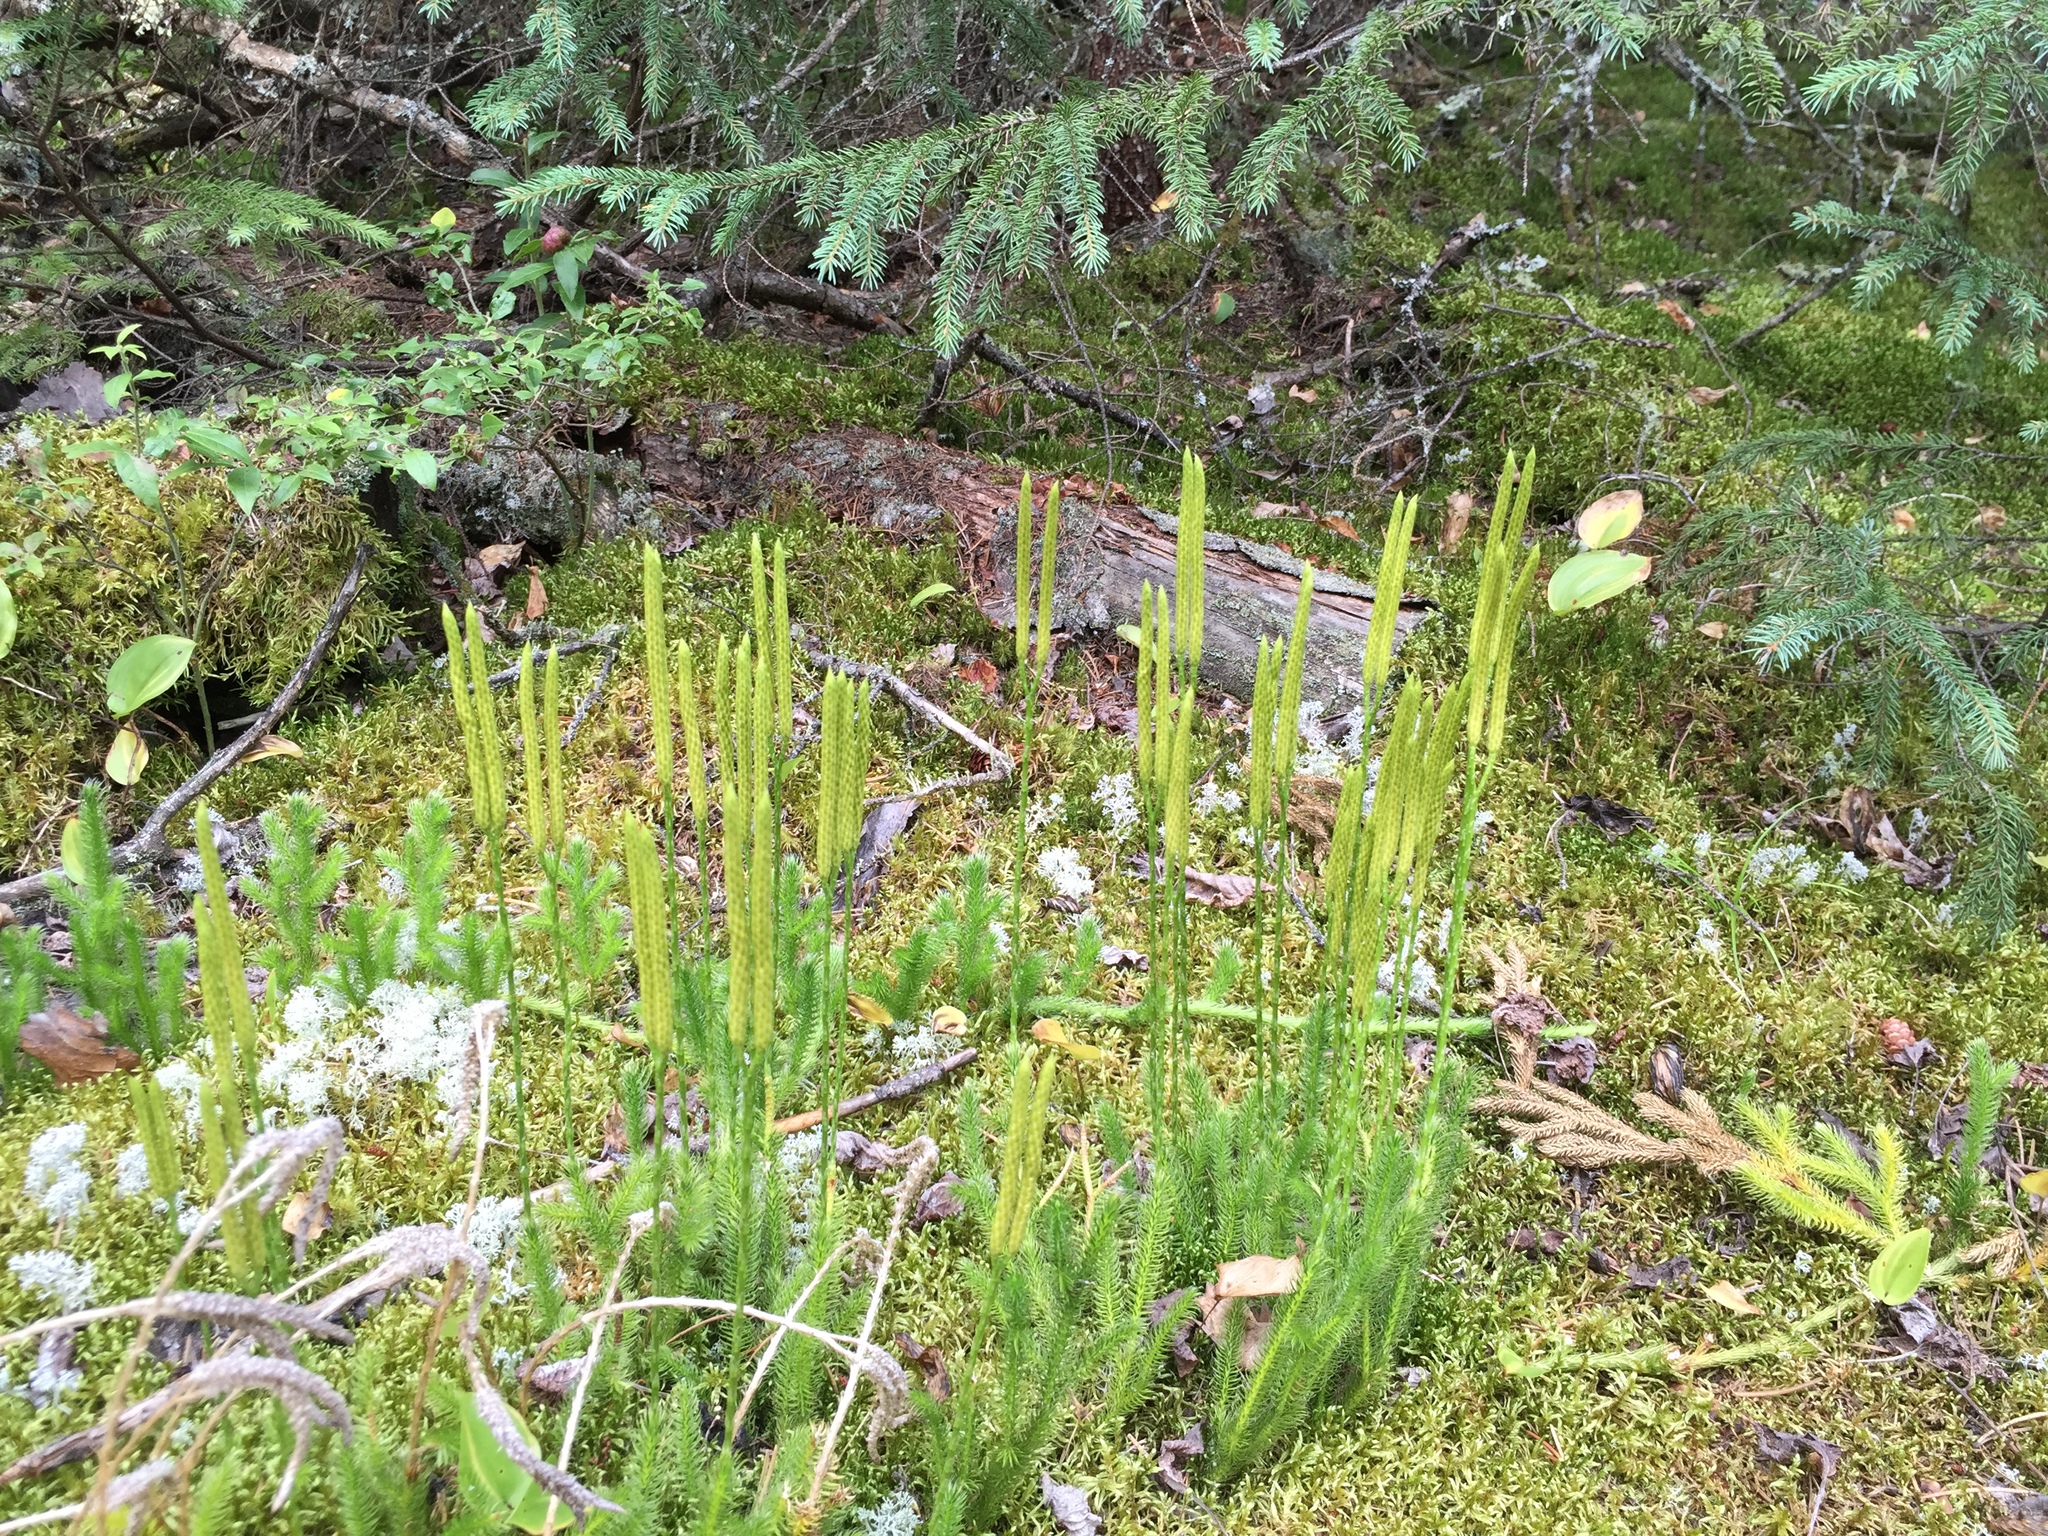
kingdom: Plantae
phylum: Tracheophyta
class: Lycopodiopsida
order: Lycopodiales
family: Lycopodiaceae
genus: Lycopodium
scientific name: Lycopodium clavatum
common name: Stag's-horn clubmoss
